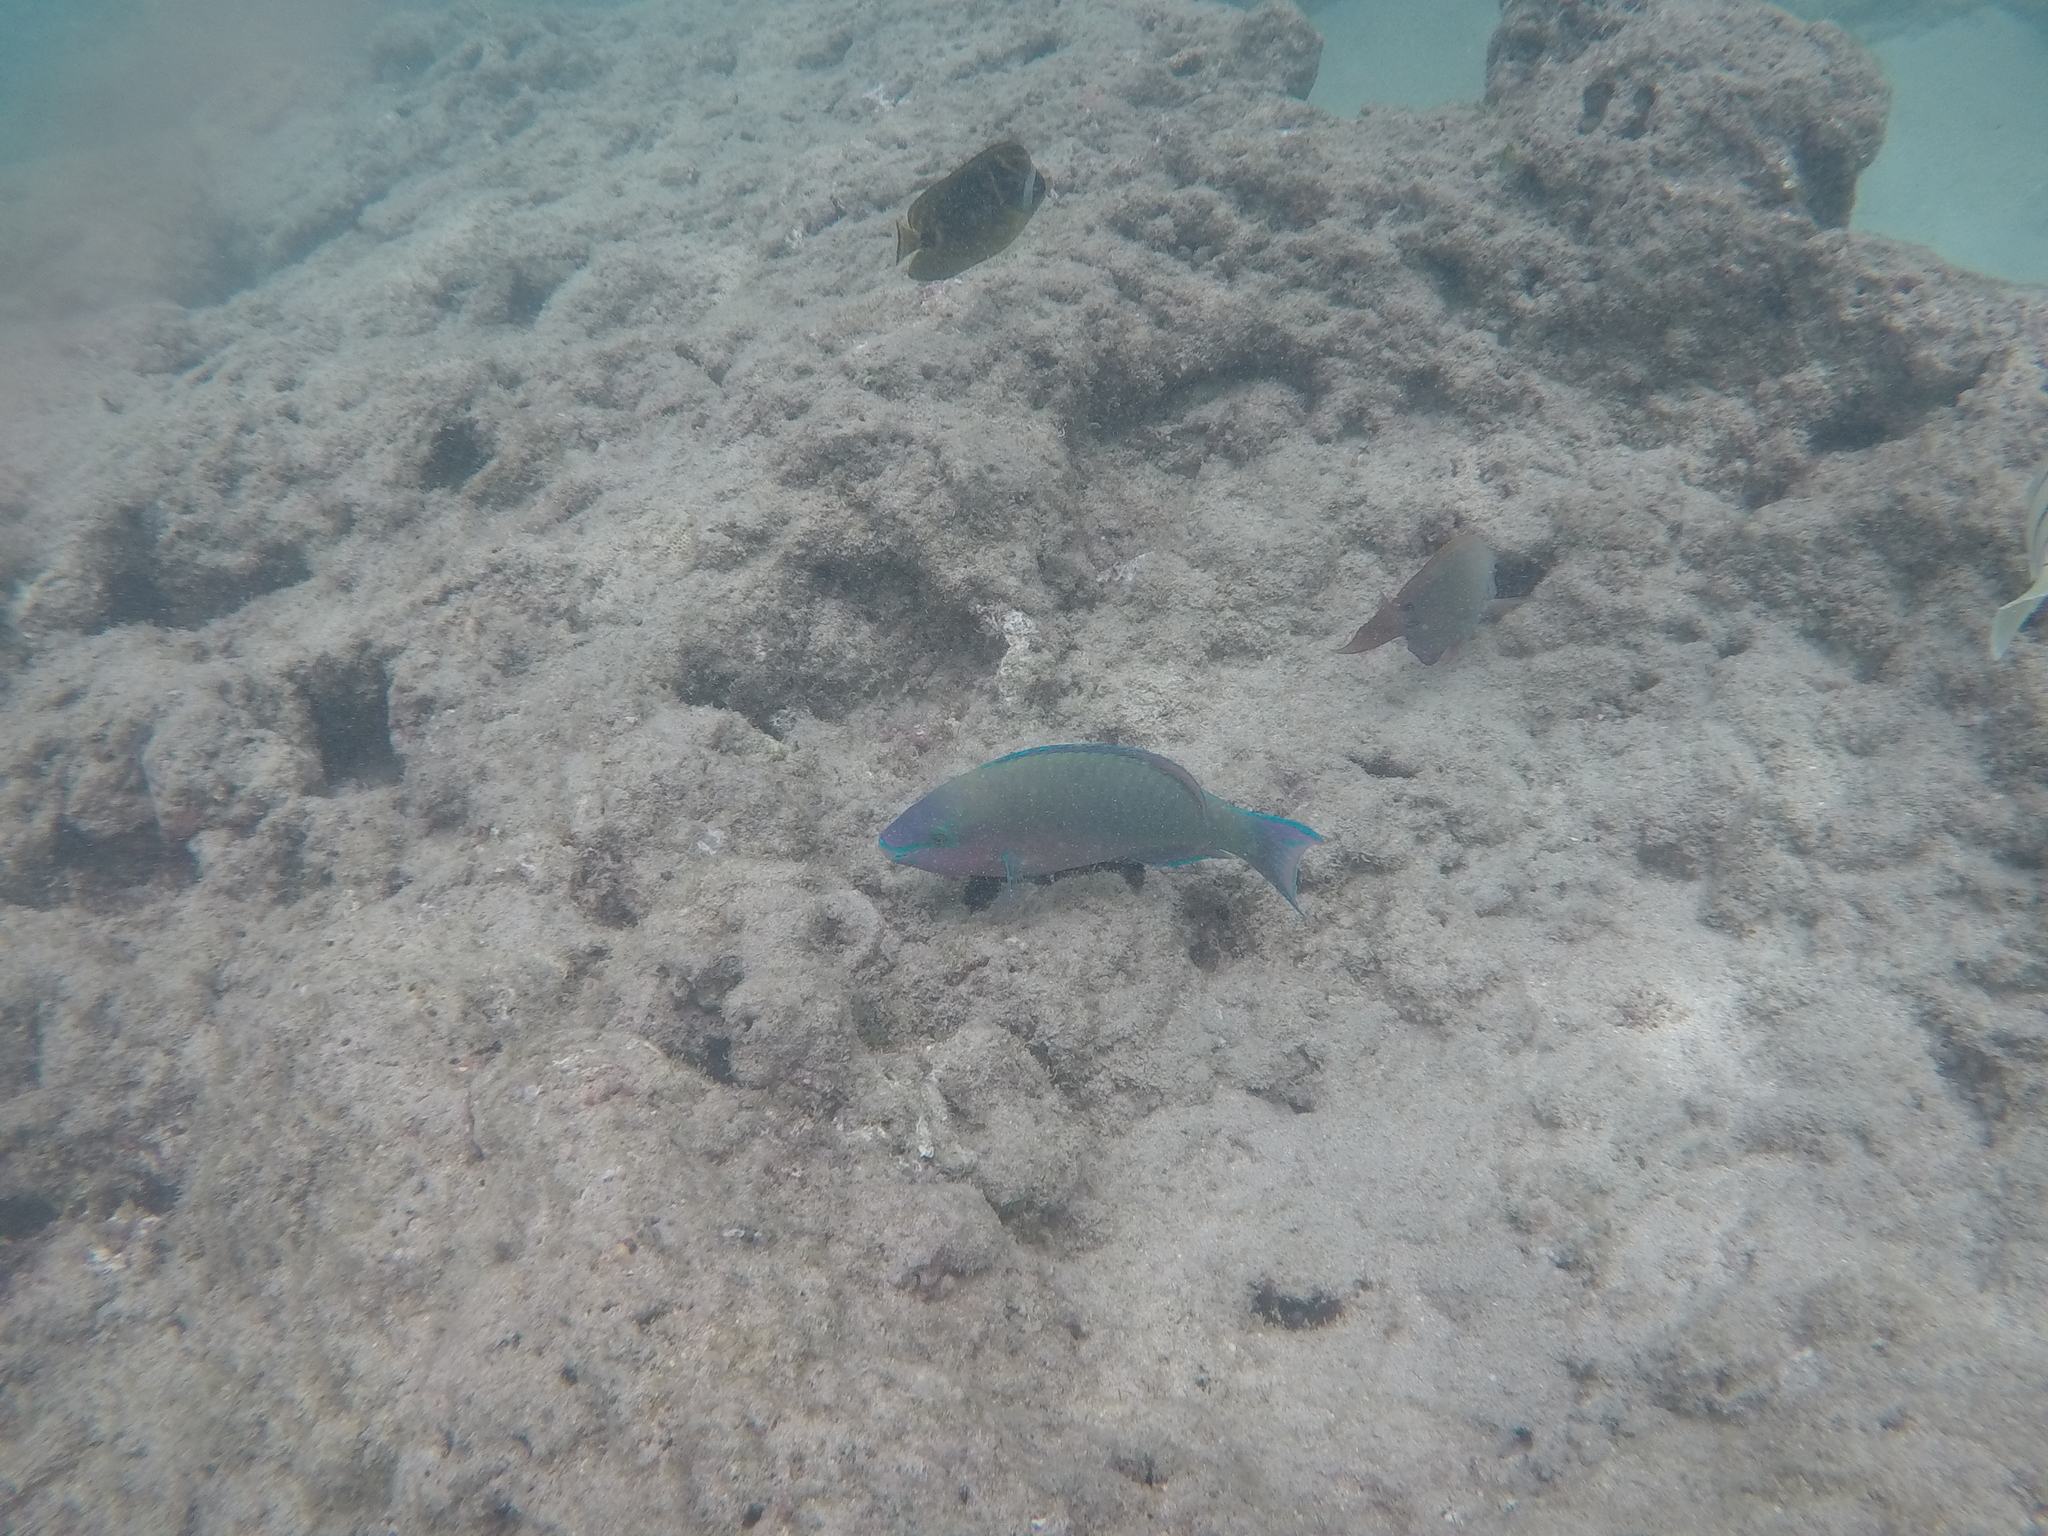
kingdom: Animalia
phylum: Chordata
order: Perciformes
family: Scaridae
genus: Scarus
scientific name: Scarus psittacus
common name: Palenose parrotfish
